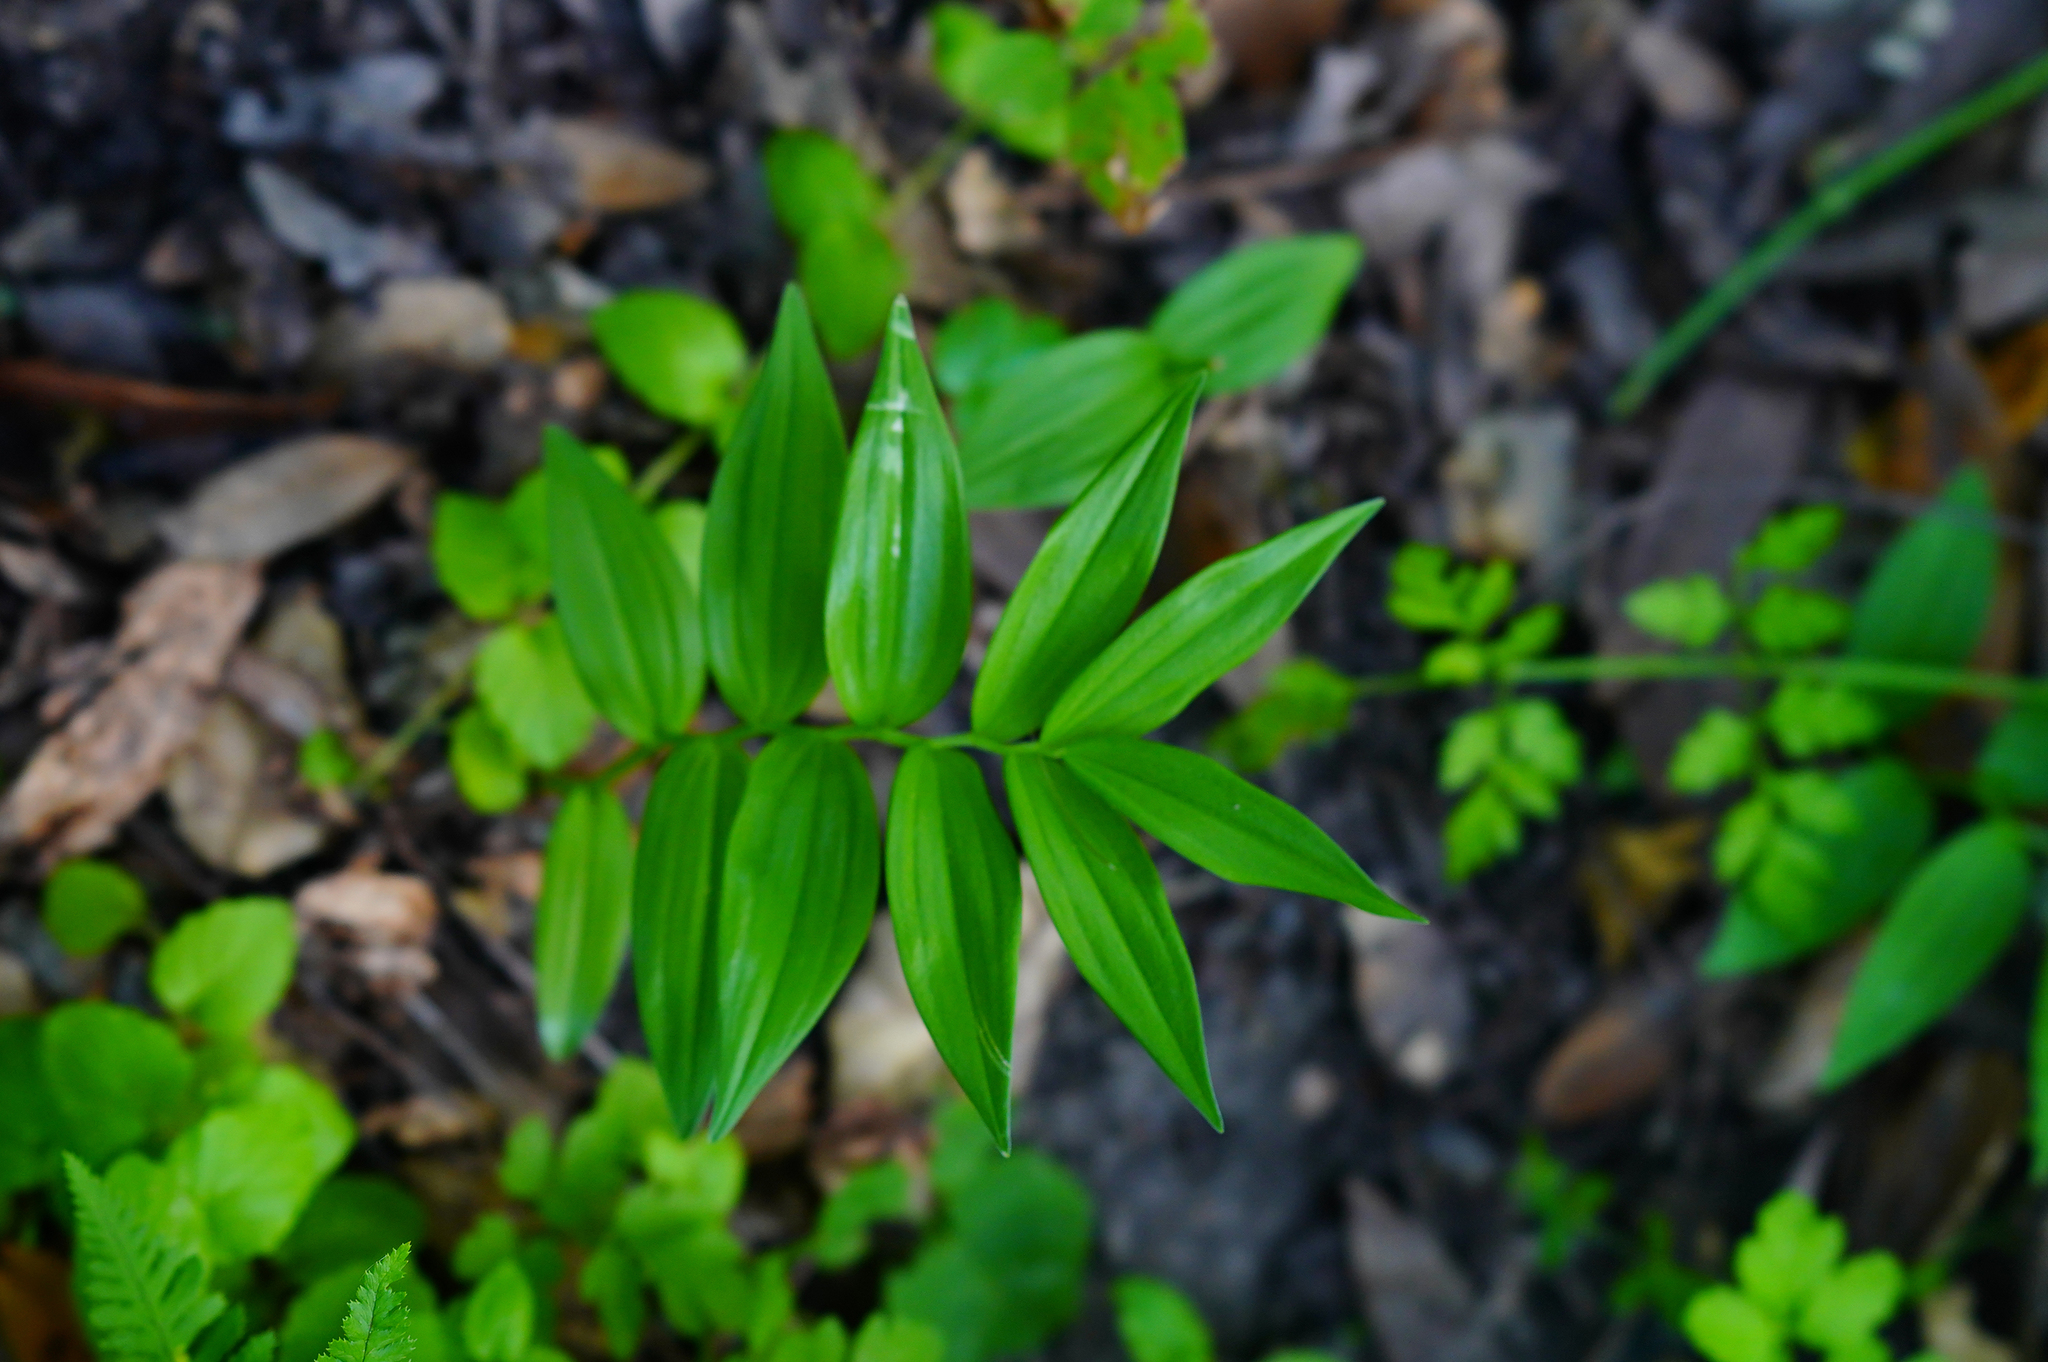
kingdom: Plantae
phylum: Tracheophyta
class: Liliopsida
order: Asparagales
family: Asparagaceae
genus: Maianthemum
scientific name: Maianthemum stellatum
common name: Little false solomon's seal
